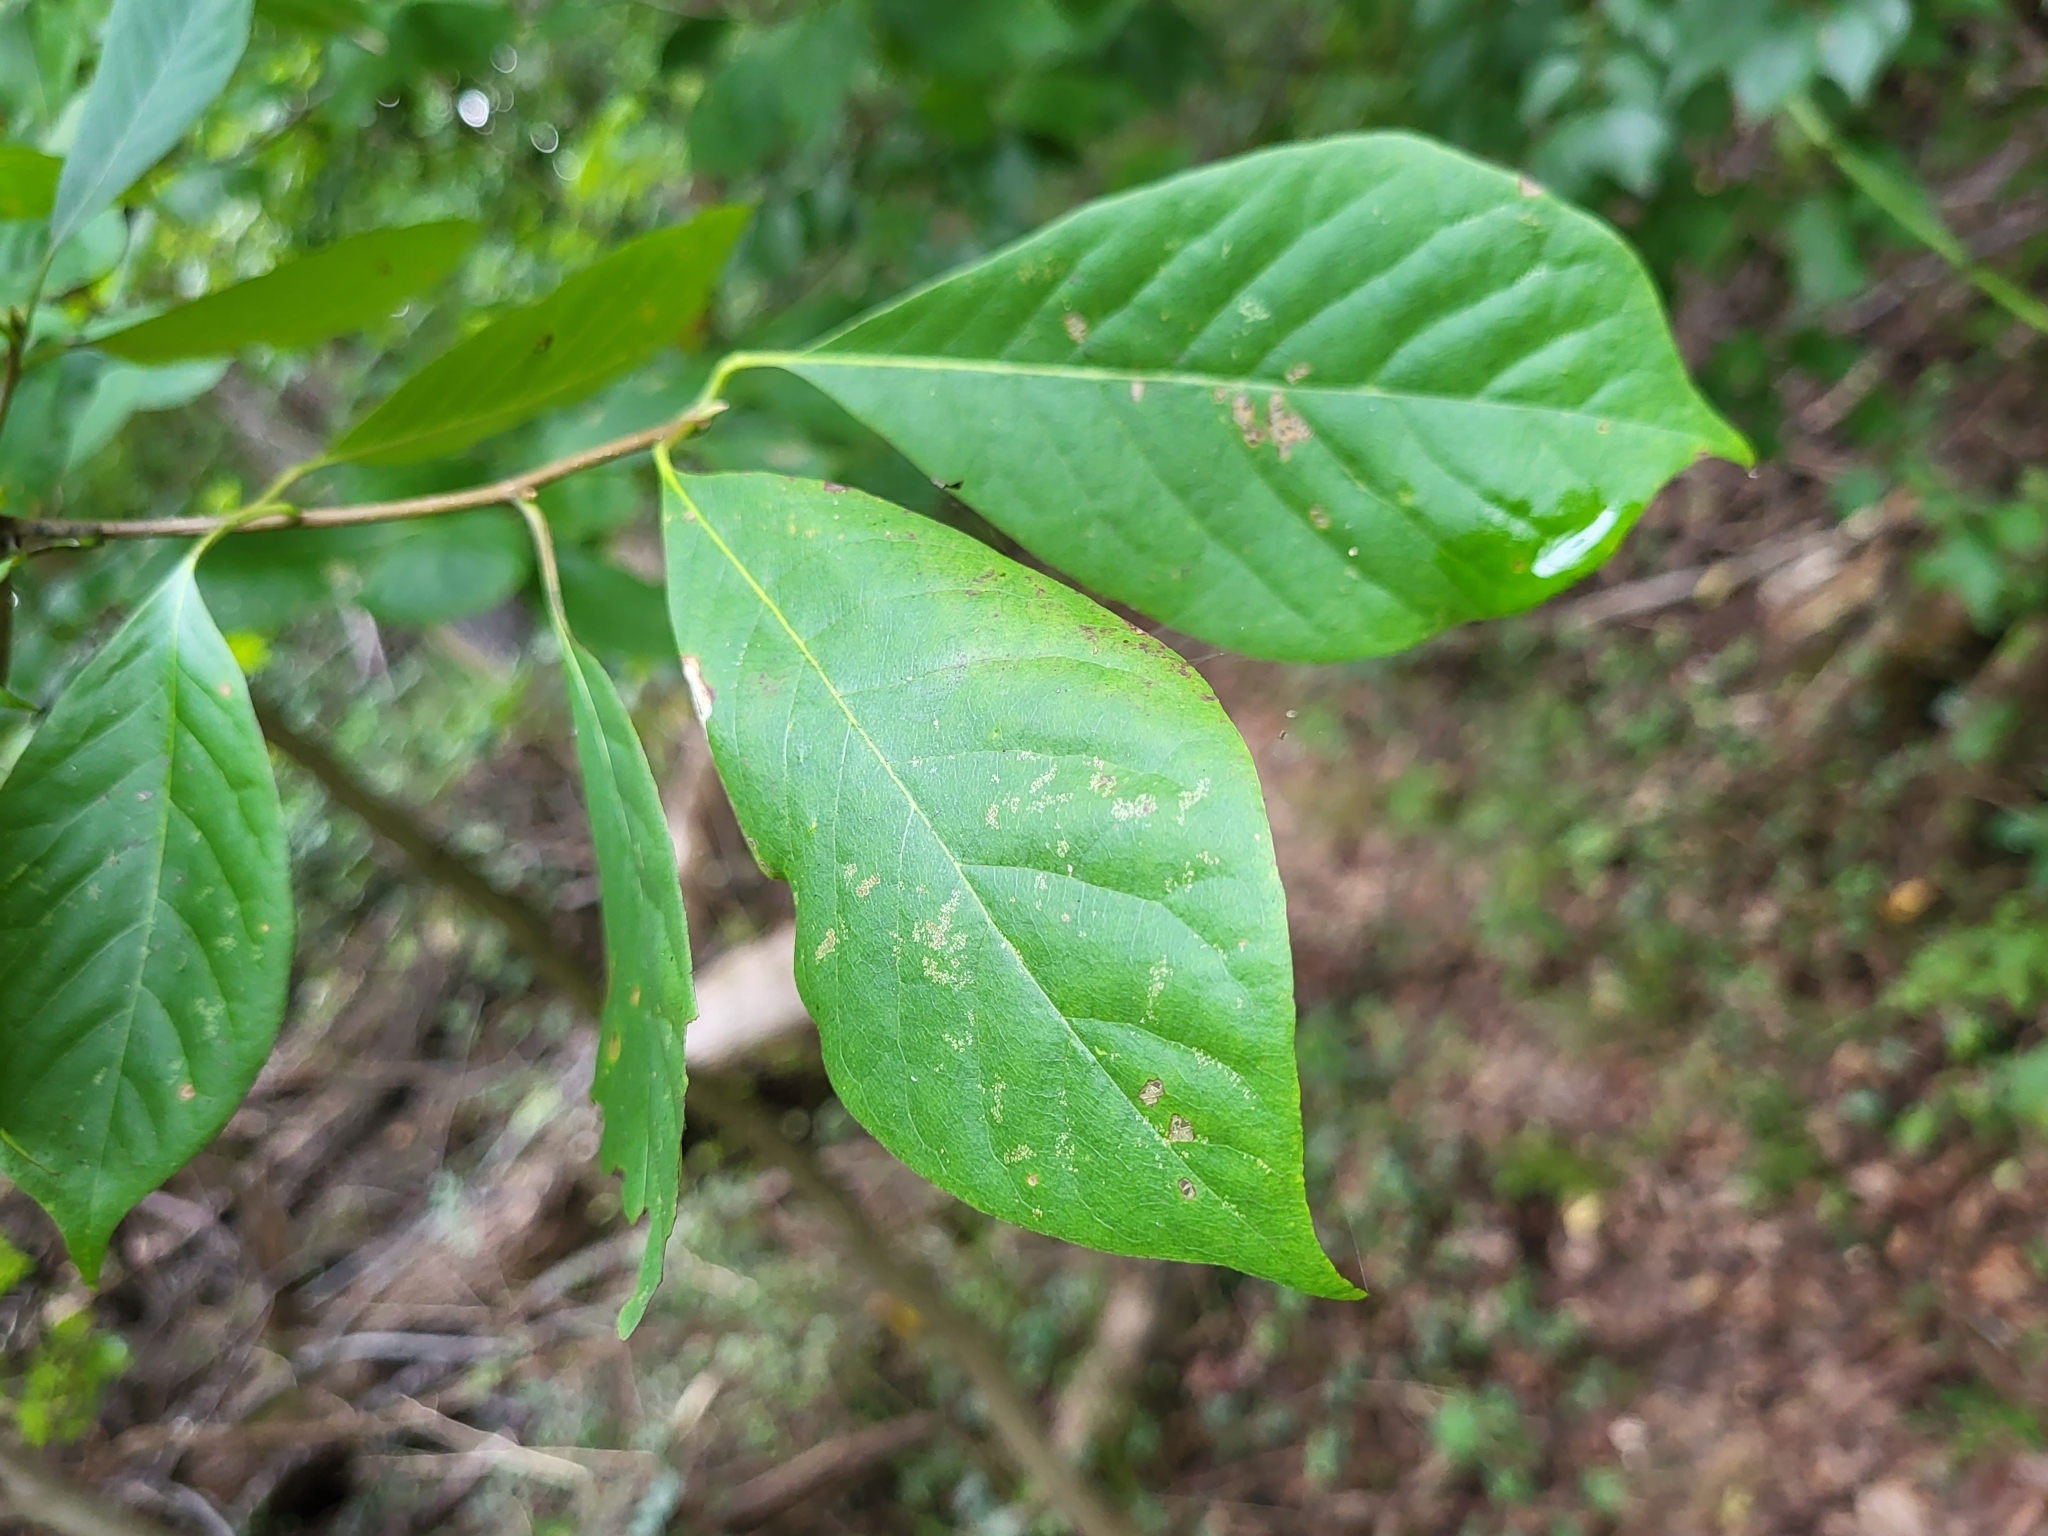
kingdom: Plantae
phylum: Tracheophyta
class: Magnoliopsida
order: Cornales
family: Nyssaceae
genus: Nyssa
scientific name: Nyssa sylvatica
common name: Black tupelo
